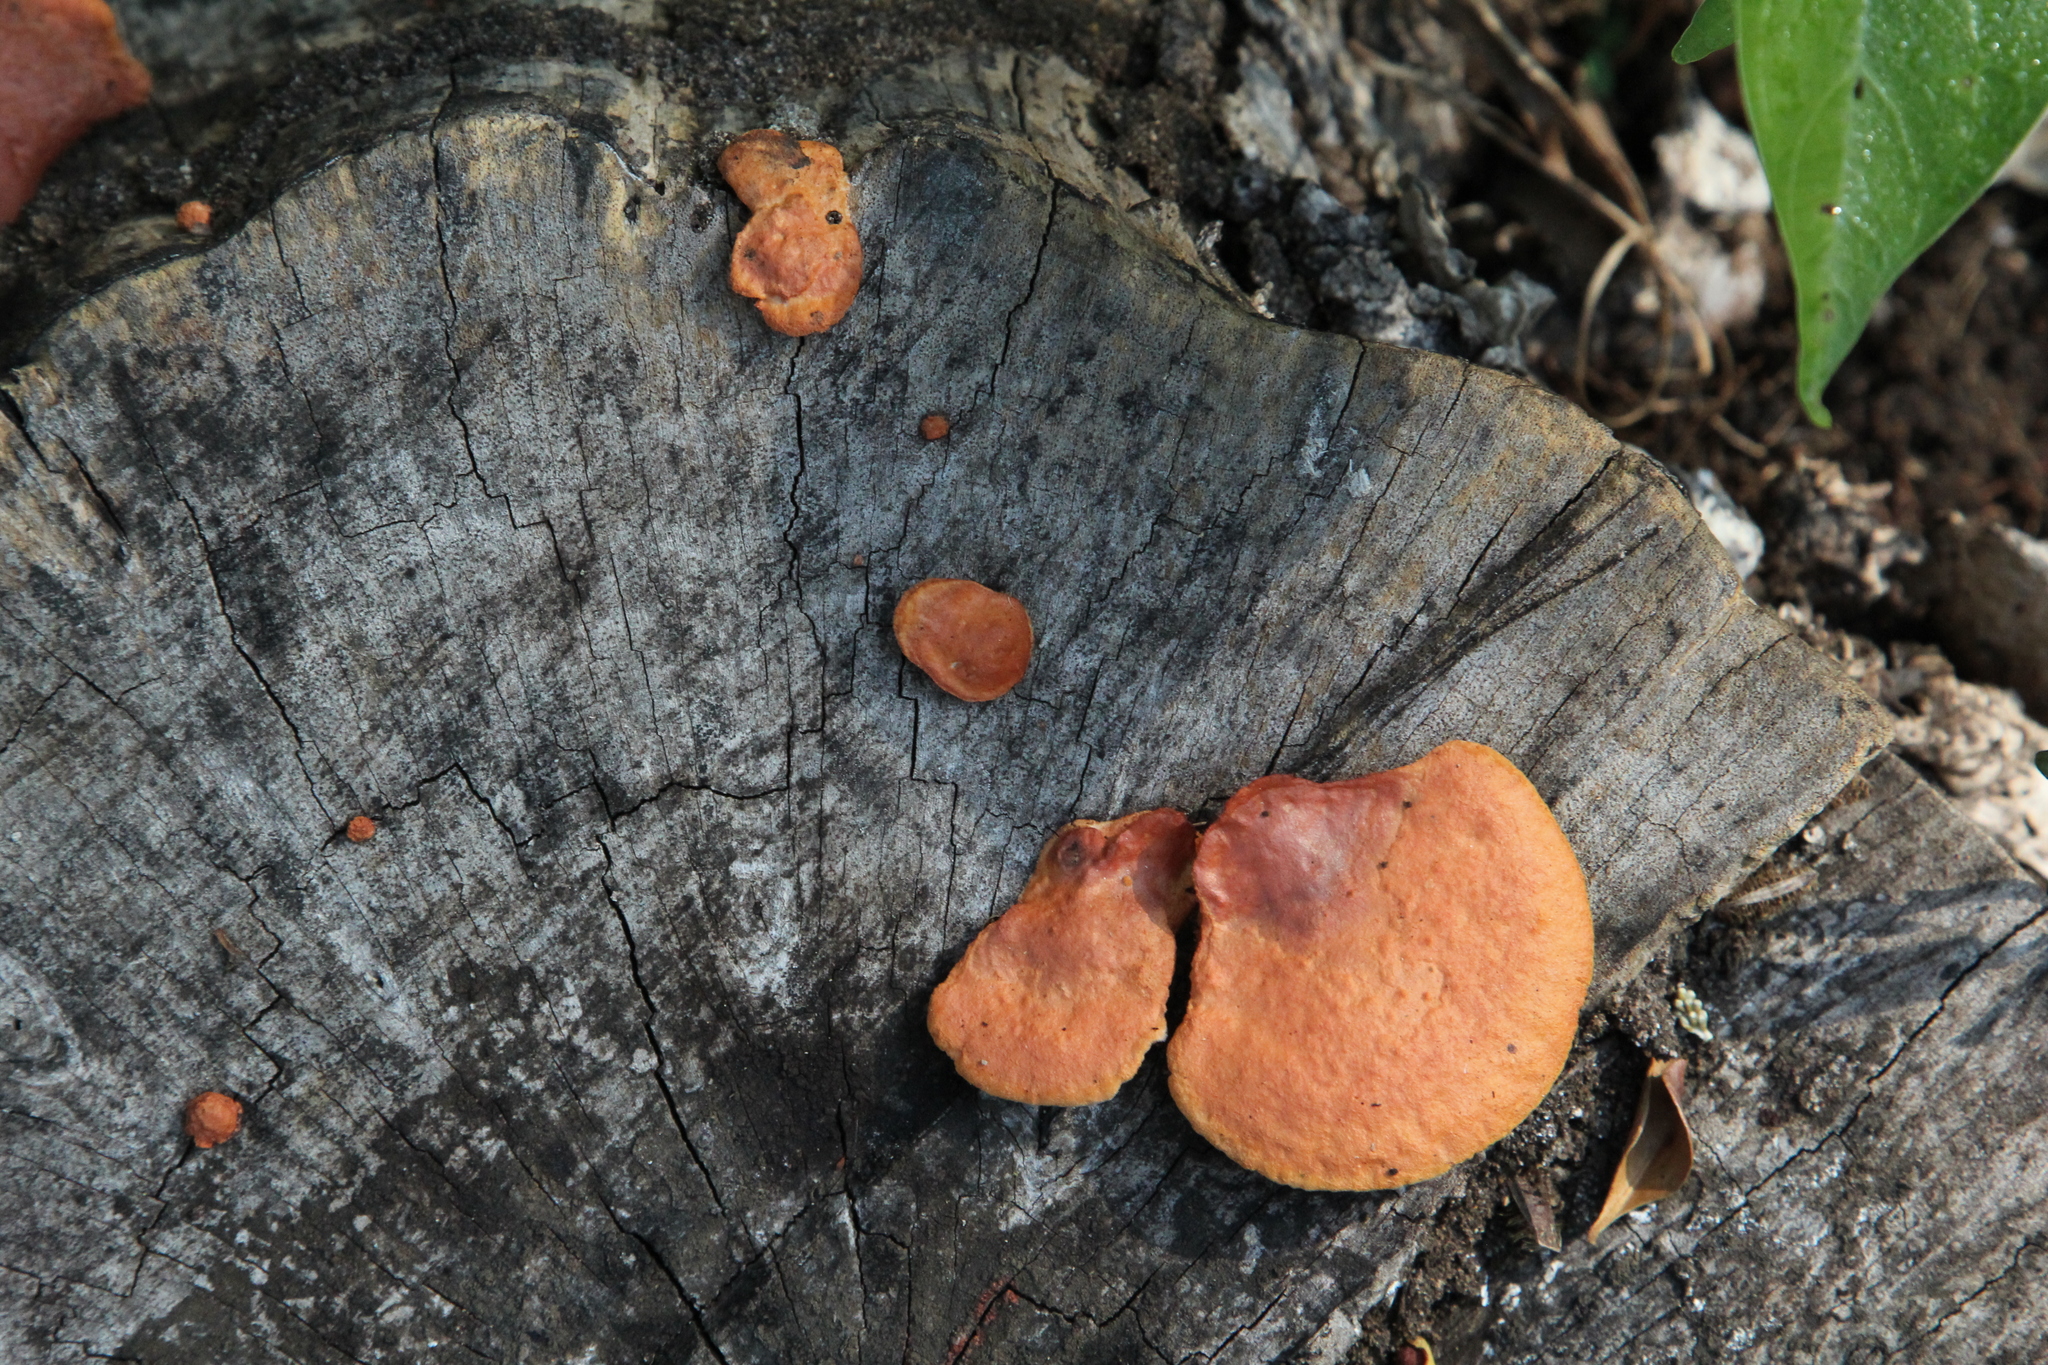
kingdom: Fungi
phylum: Basidiomycota
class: Agaricomycetes
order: Polyporales
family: Polyporaceae
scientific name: Polyporaceae
